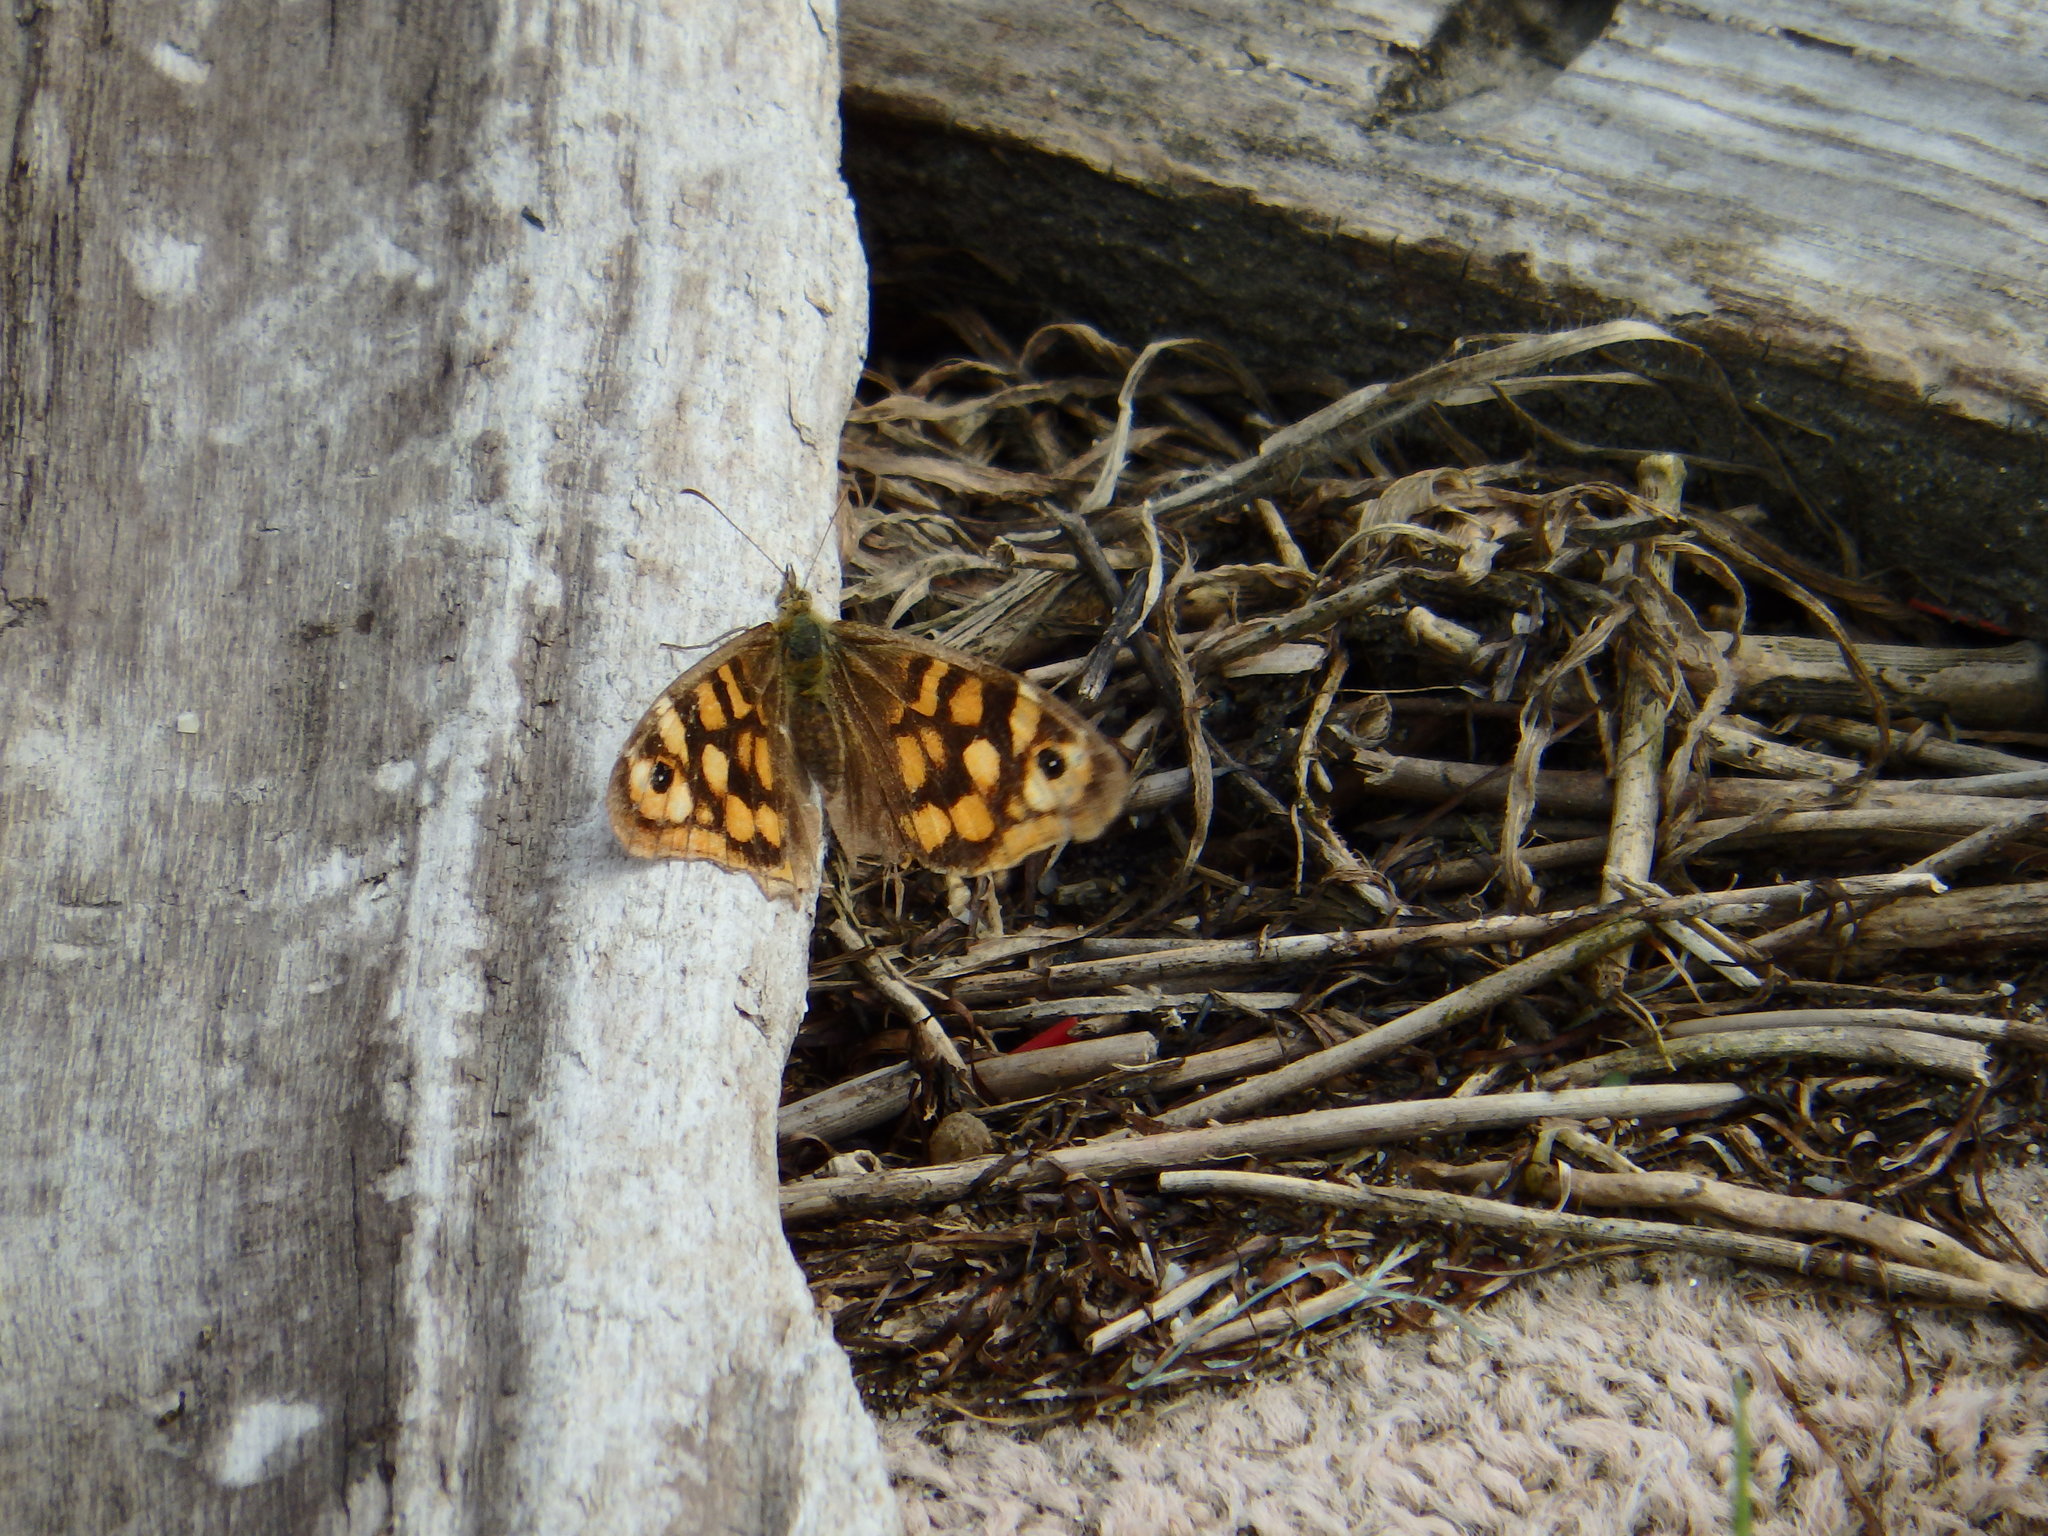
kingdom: Animalia
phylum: Arthropoda
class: Insecta
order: Lepidoptera
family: Nymphalidae
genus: Pararge
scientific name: Pararge aegeria
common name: Speckled wood
